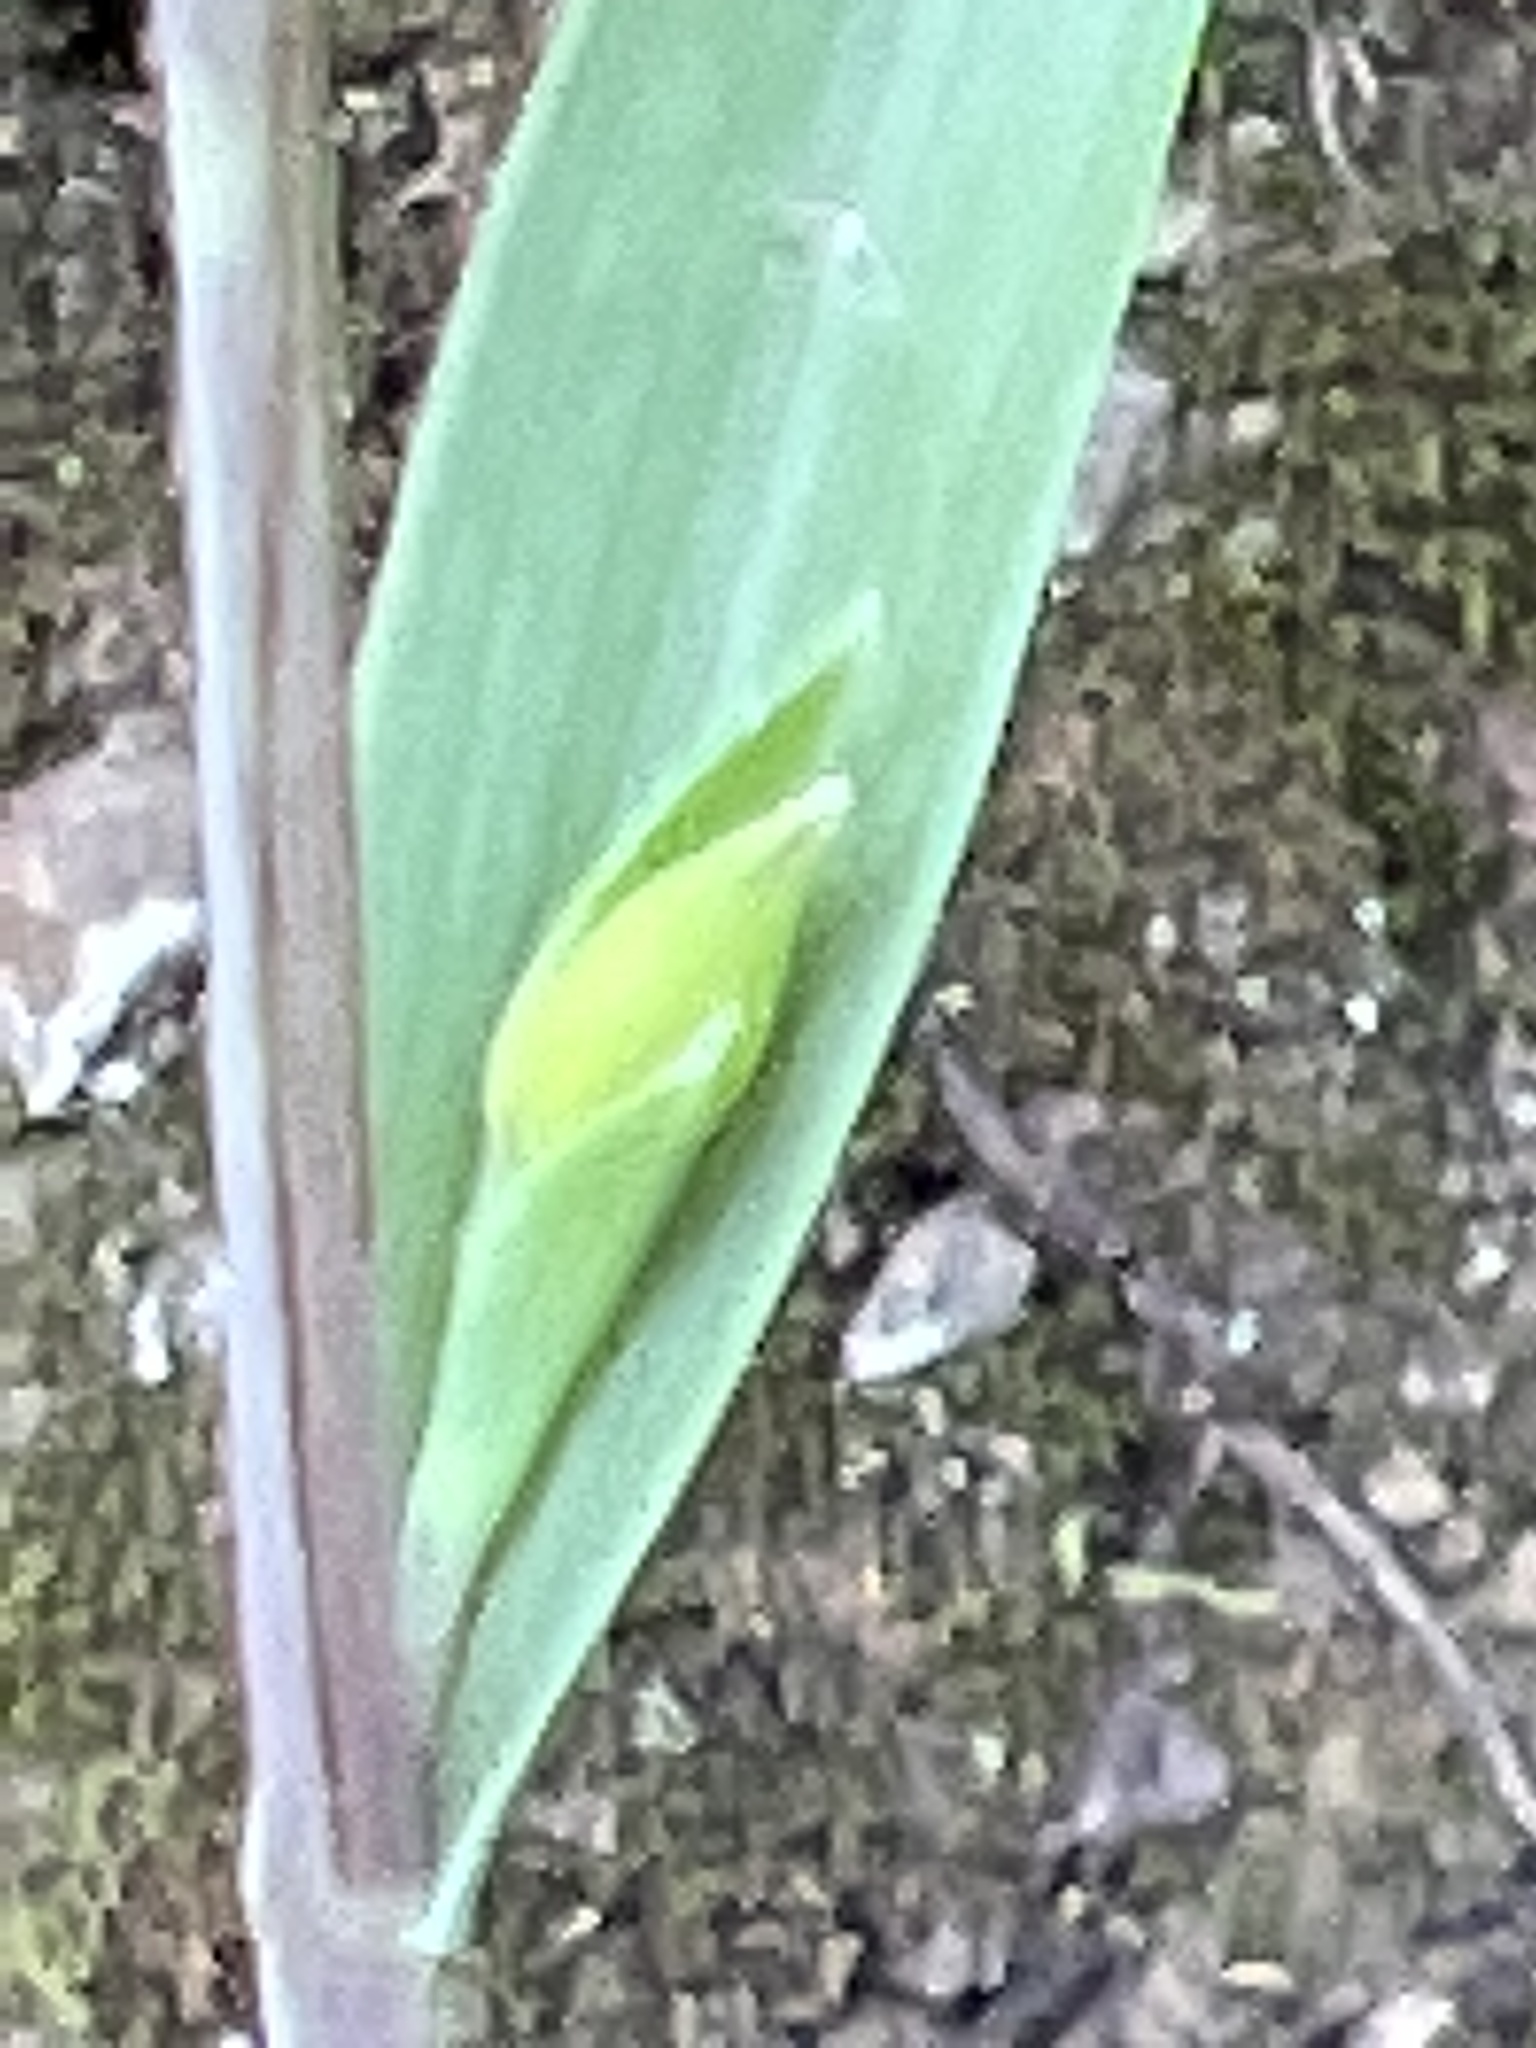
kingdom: Plantae
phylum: Tracheophyta
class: Liliopsida
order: Liliales
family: Liliaceae
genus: Calochortus
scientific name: Calochortus albus
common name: Fairy-lantern
